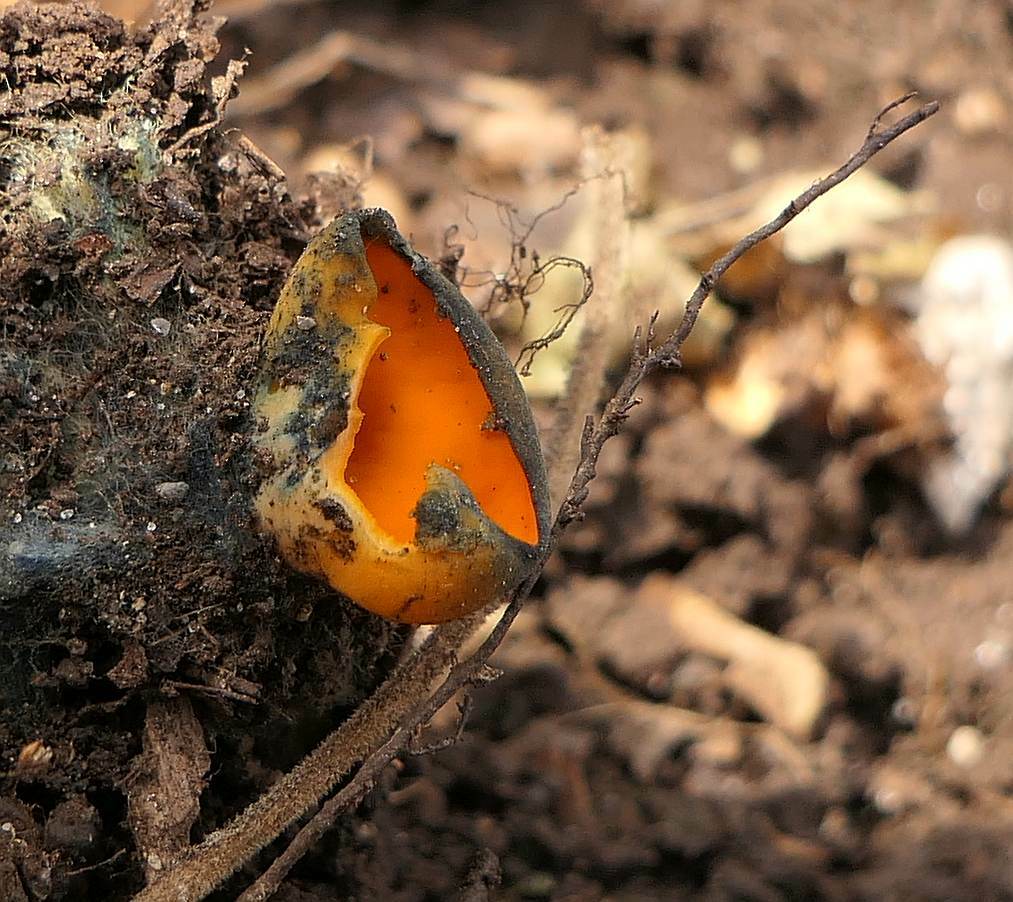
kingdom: Fungi
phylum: Ascomycota
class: Pezizomycetes
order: Pezizales
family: Caloscyphaceae
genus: Caloscypha
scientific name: Caloscypha fulgens
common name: Golden cup
